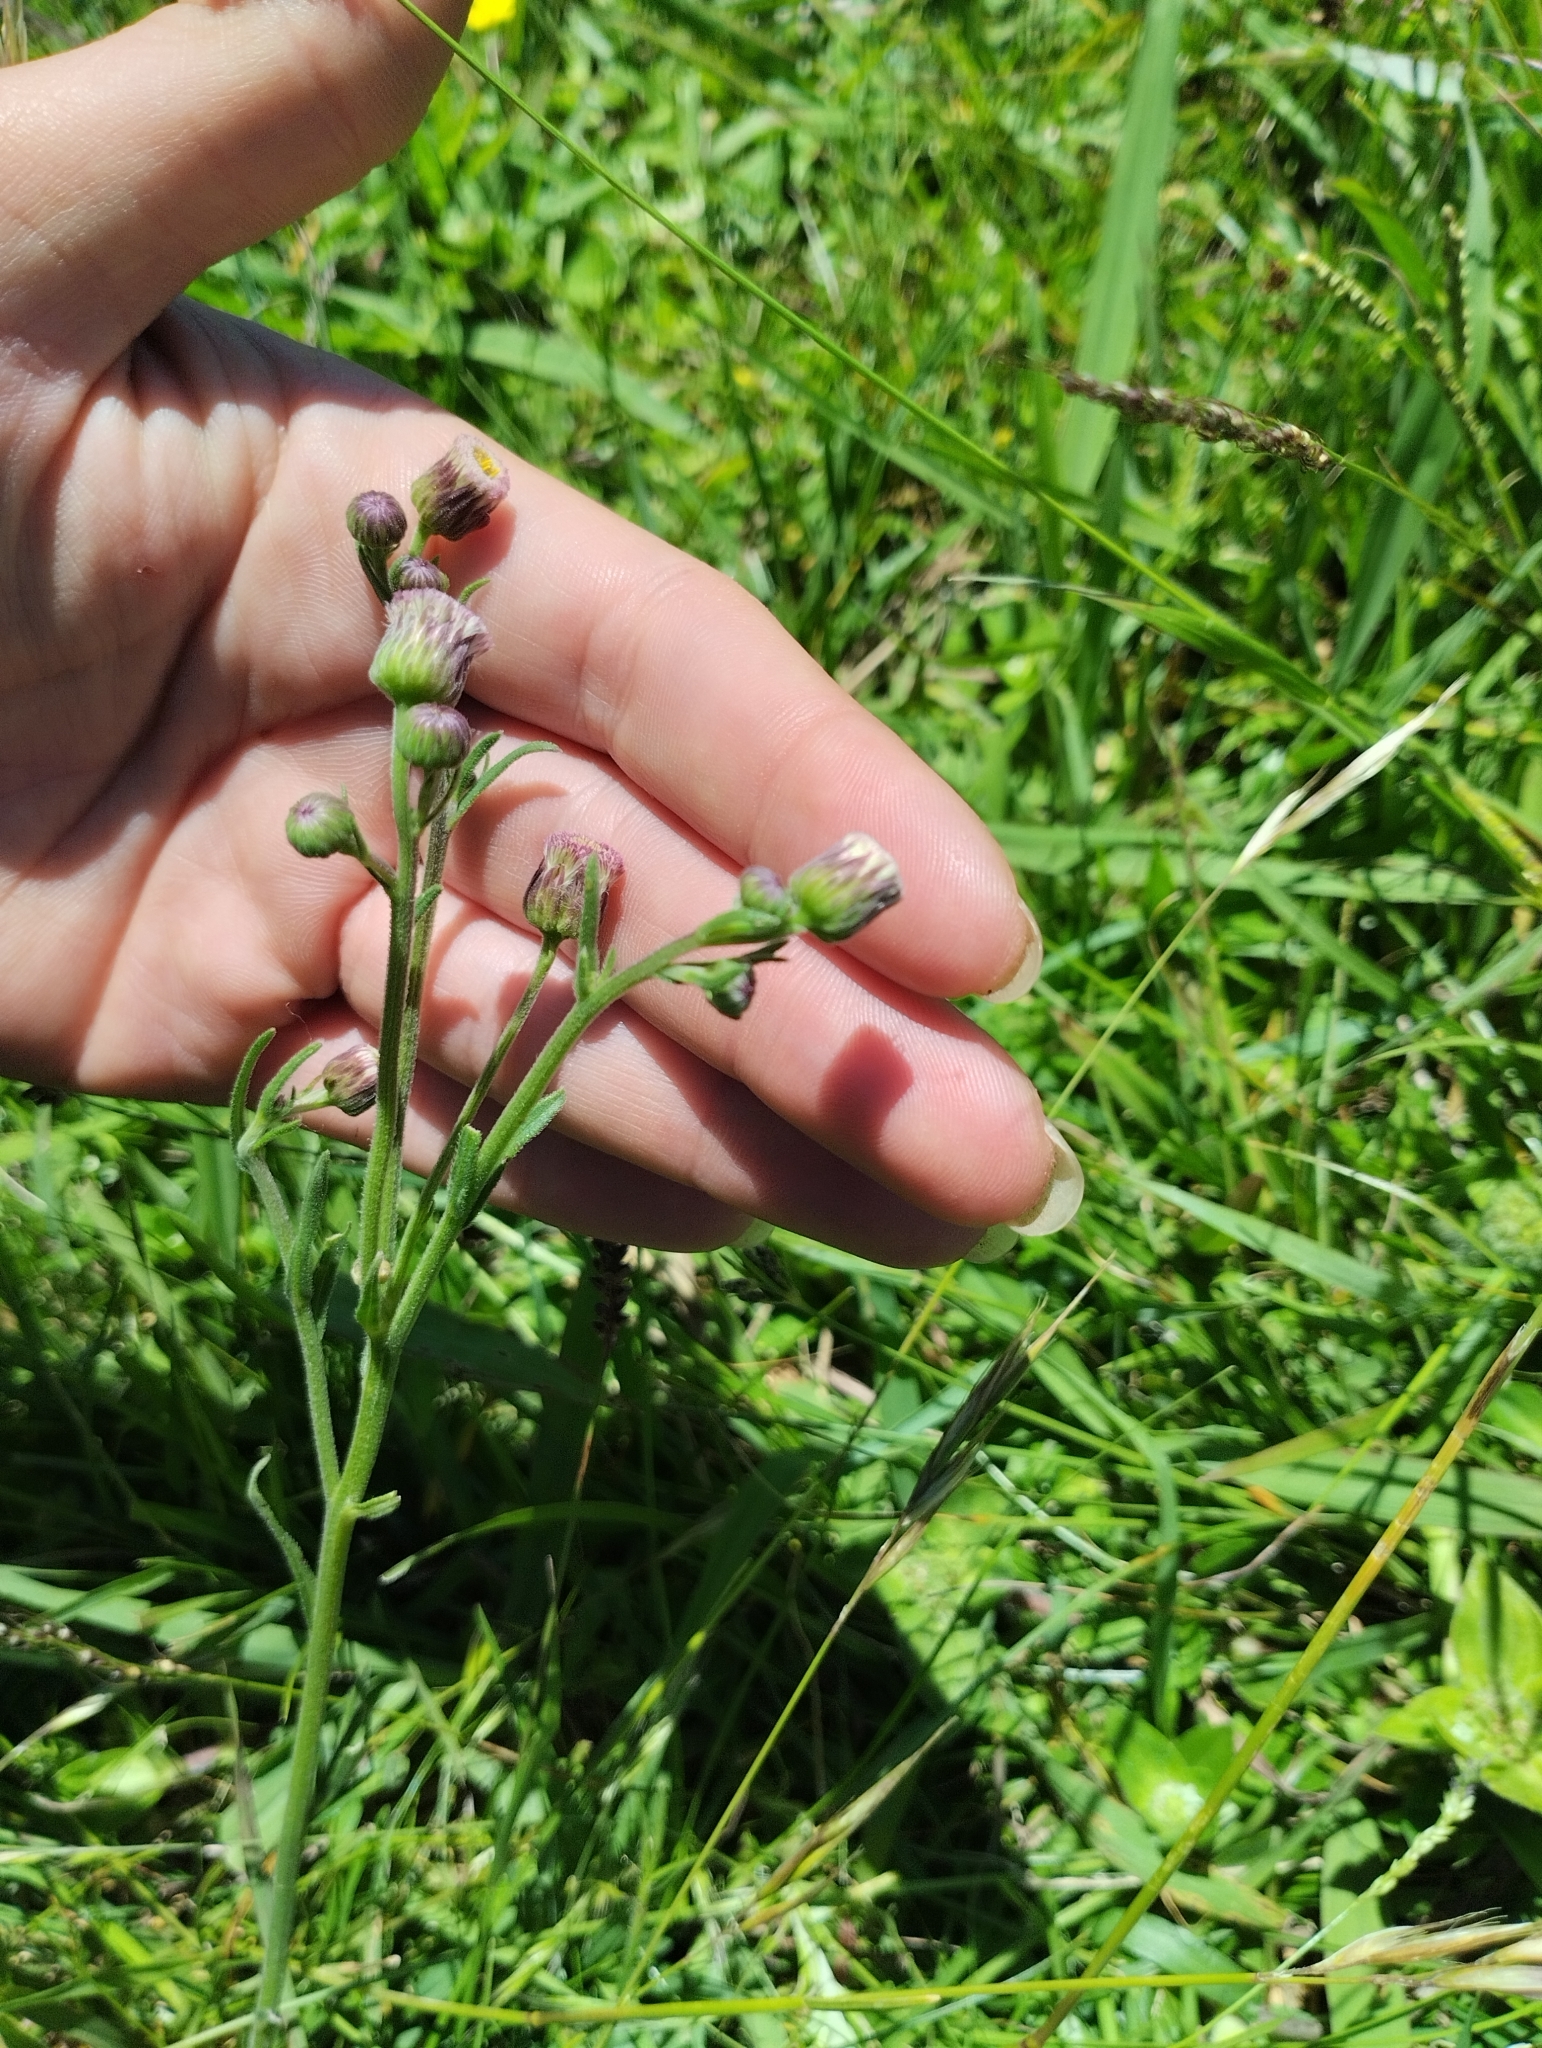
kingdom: Plantae
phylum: Tracheophyta
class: Magnoliopsida
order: Asterales
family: Asteraceae
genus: Erigeron
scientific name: Erigeron primulifolius
